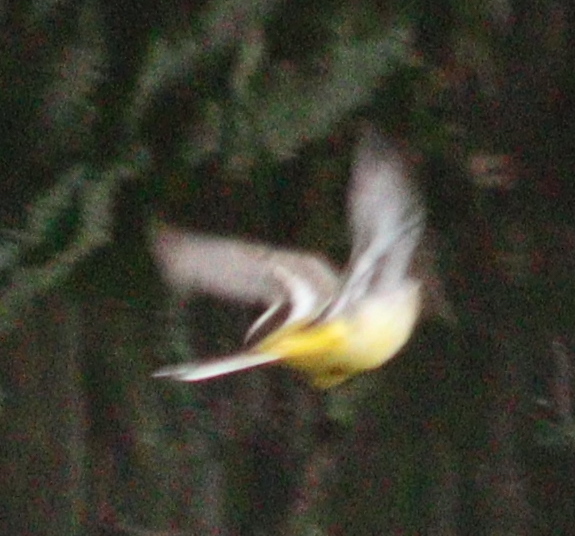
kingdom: Animalia
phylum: Chordata
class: Aves
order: Passeriformes
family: Motacillidae
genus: Motacilla
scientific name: Motacilla cinerea
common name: Grey wagtail
